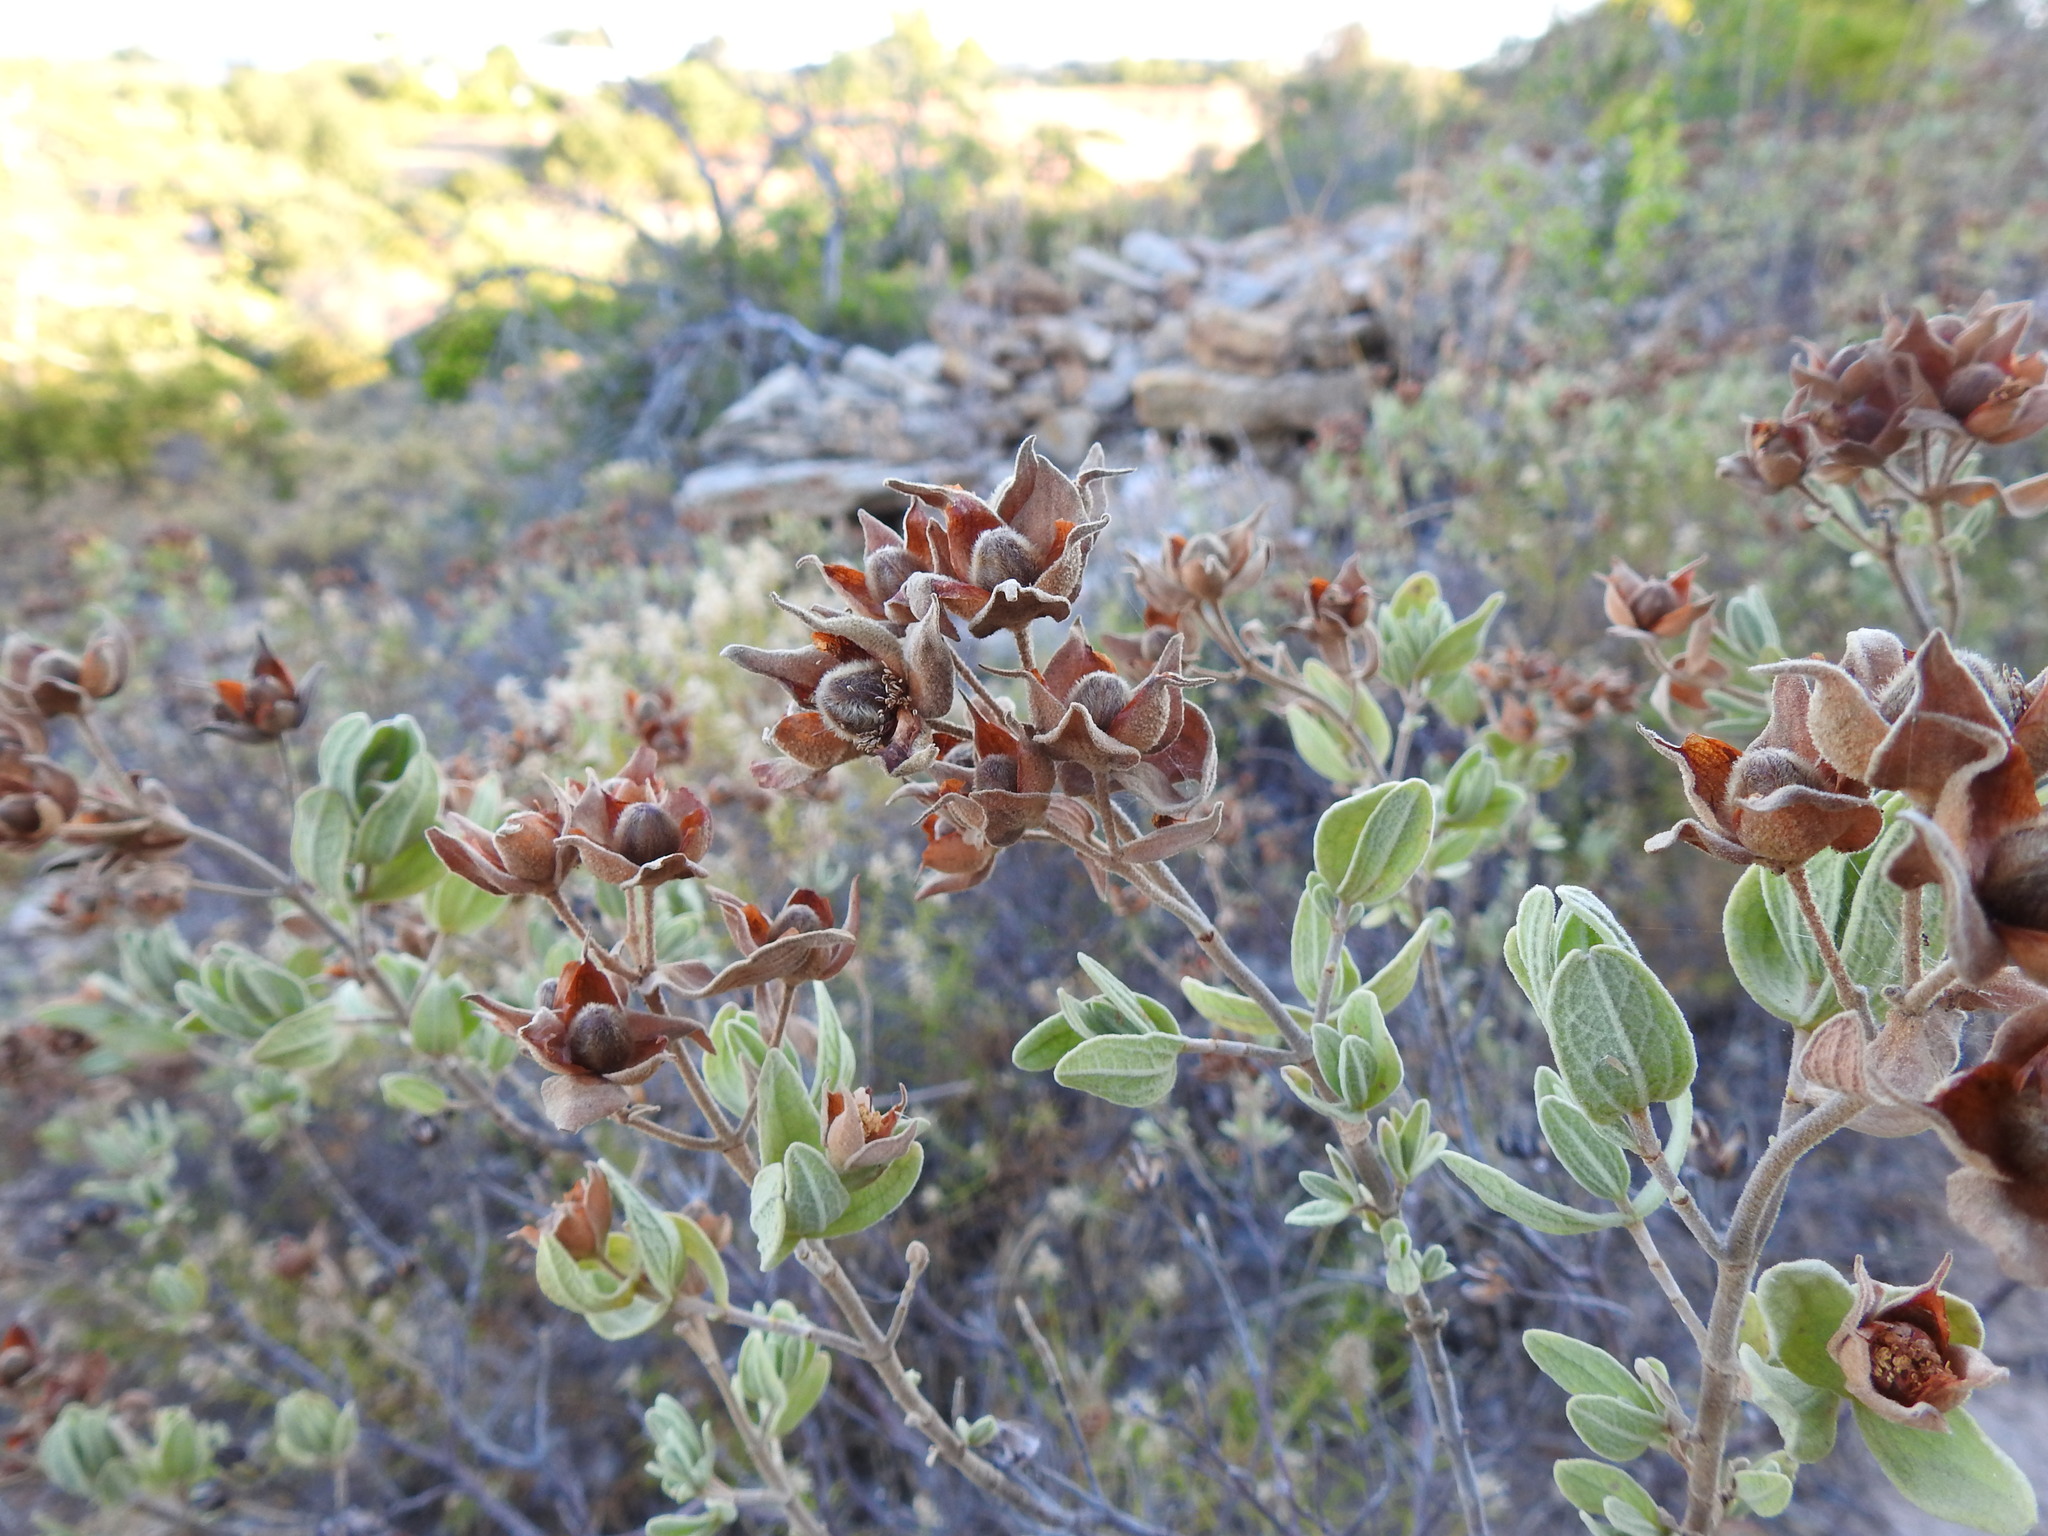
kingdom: Plantae
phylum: Tracheophyta
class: Magnoliopsida
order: Malvales
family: Cistaceae
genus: Cistus
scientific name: Cistus albidus
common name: White-leaf rock-rose
